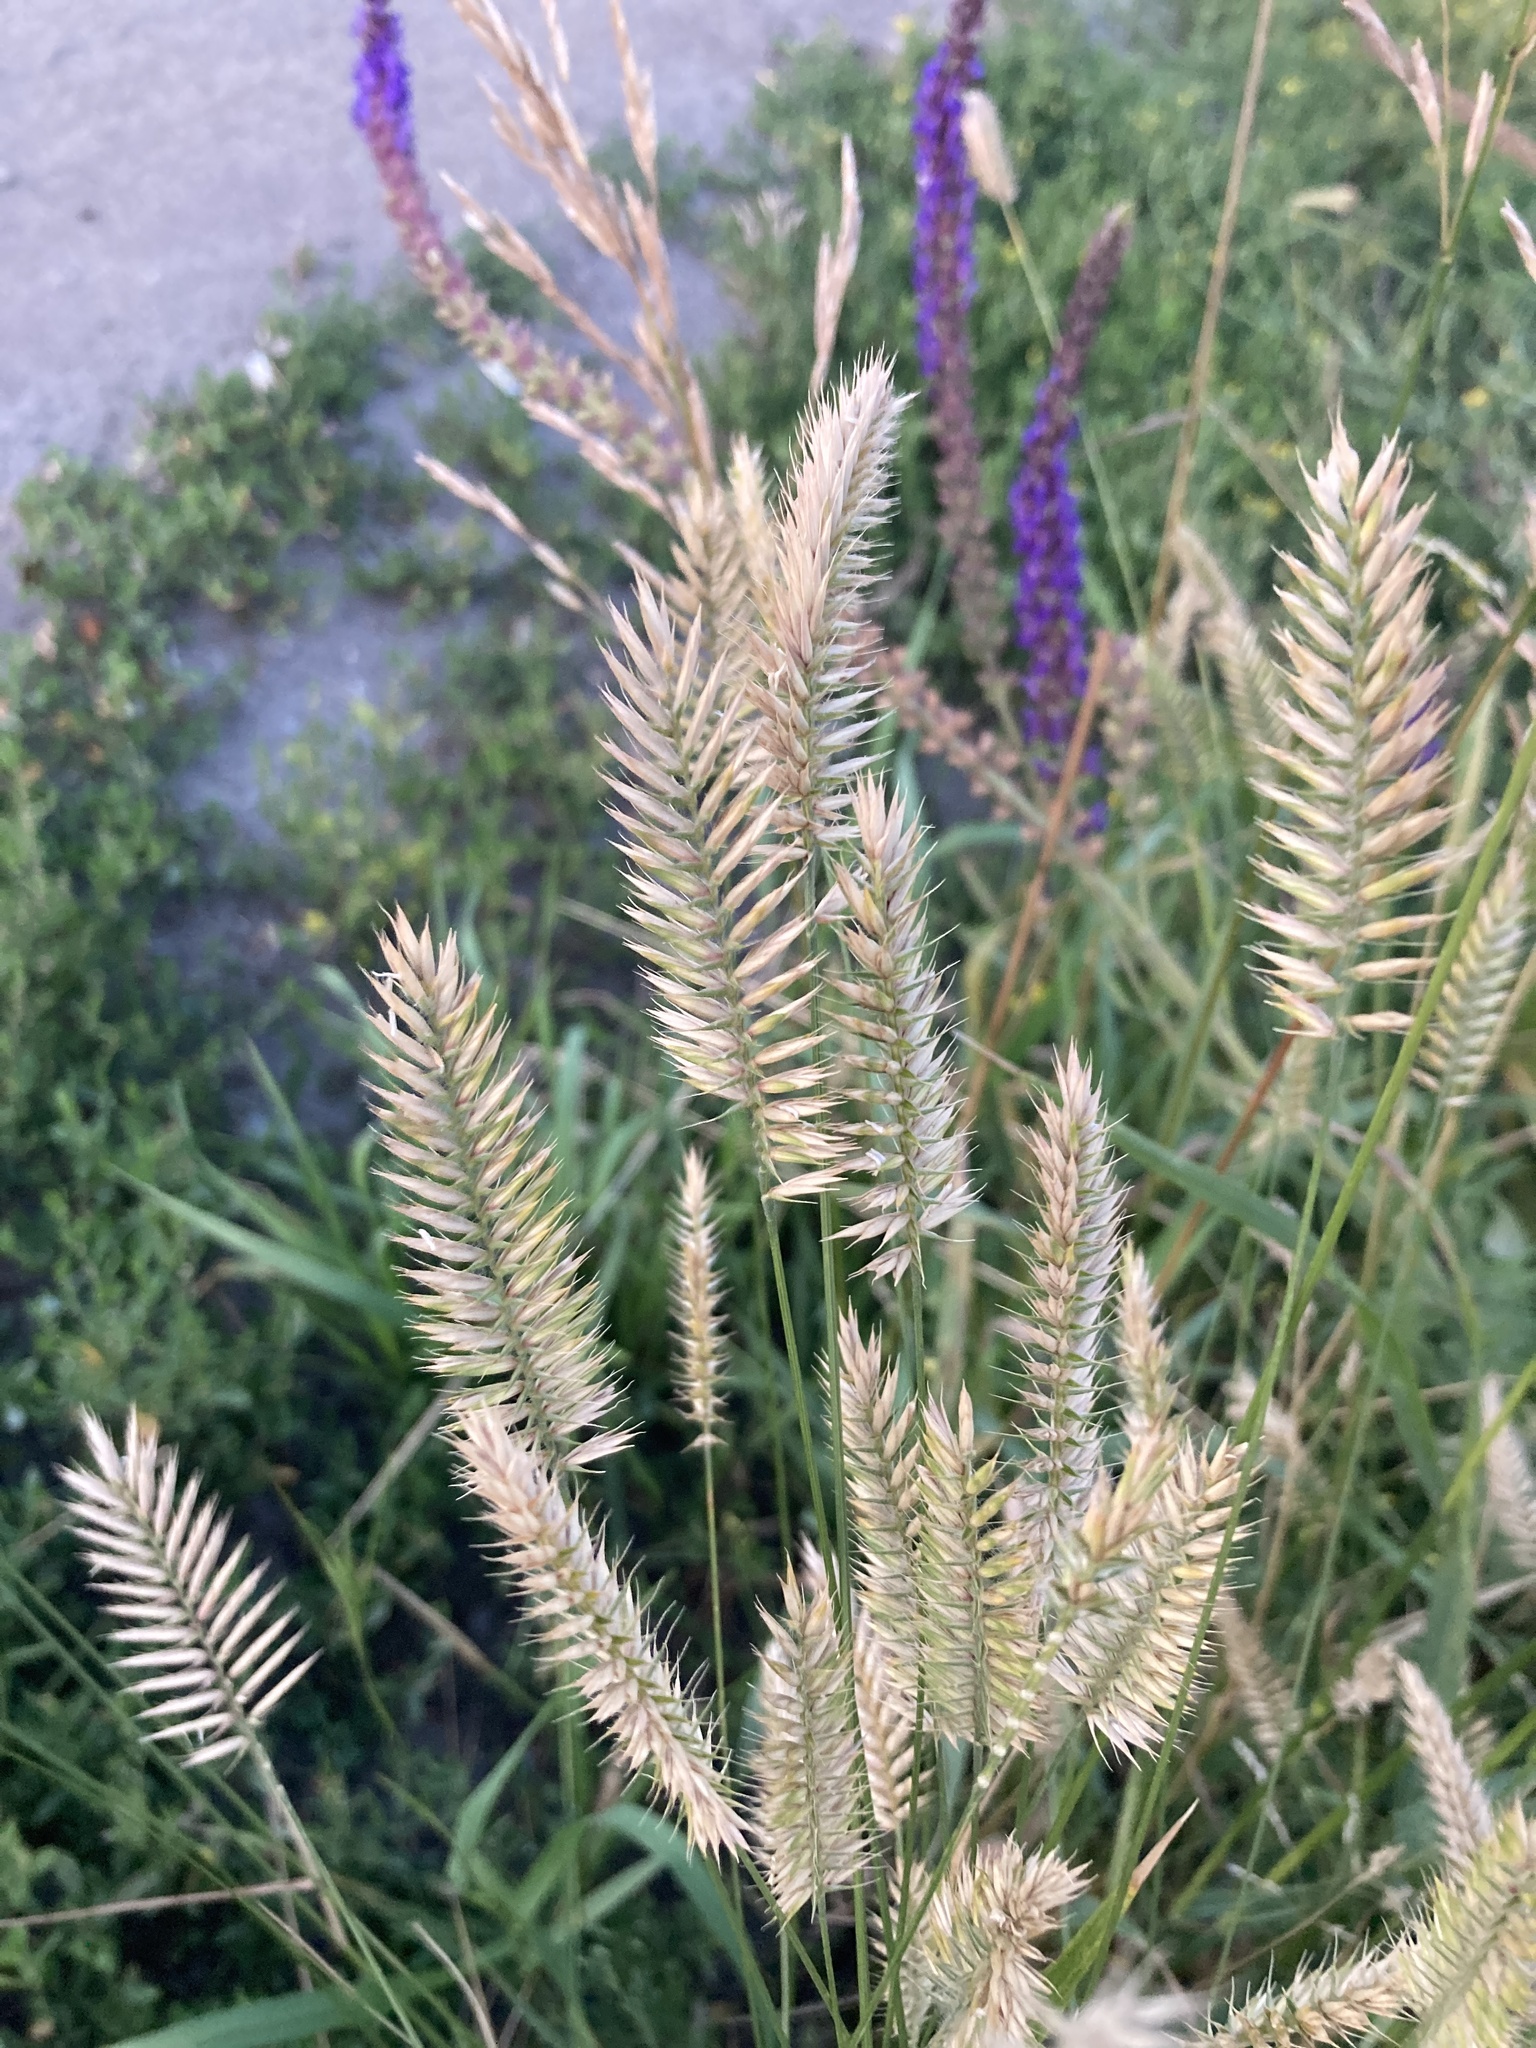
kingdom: Plantae
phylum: Tracheophyta
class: Liliopsida
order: Poales
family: Poaceae
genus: Agropyron
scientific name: Agropyron cristatum
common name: Crested wheatgrass
